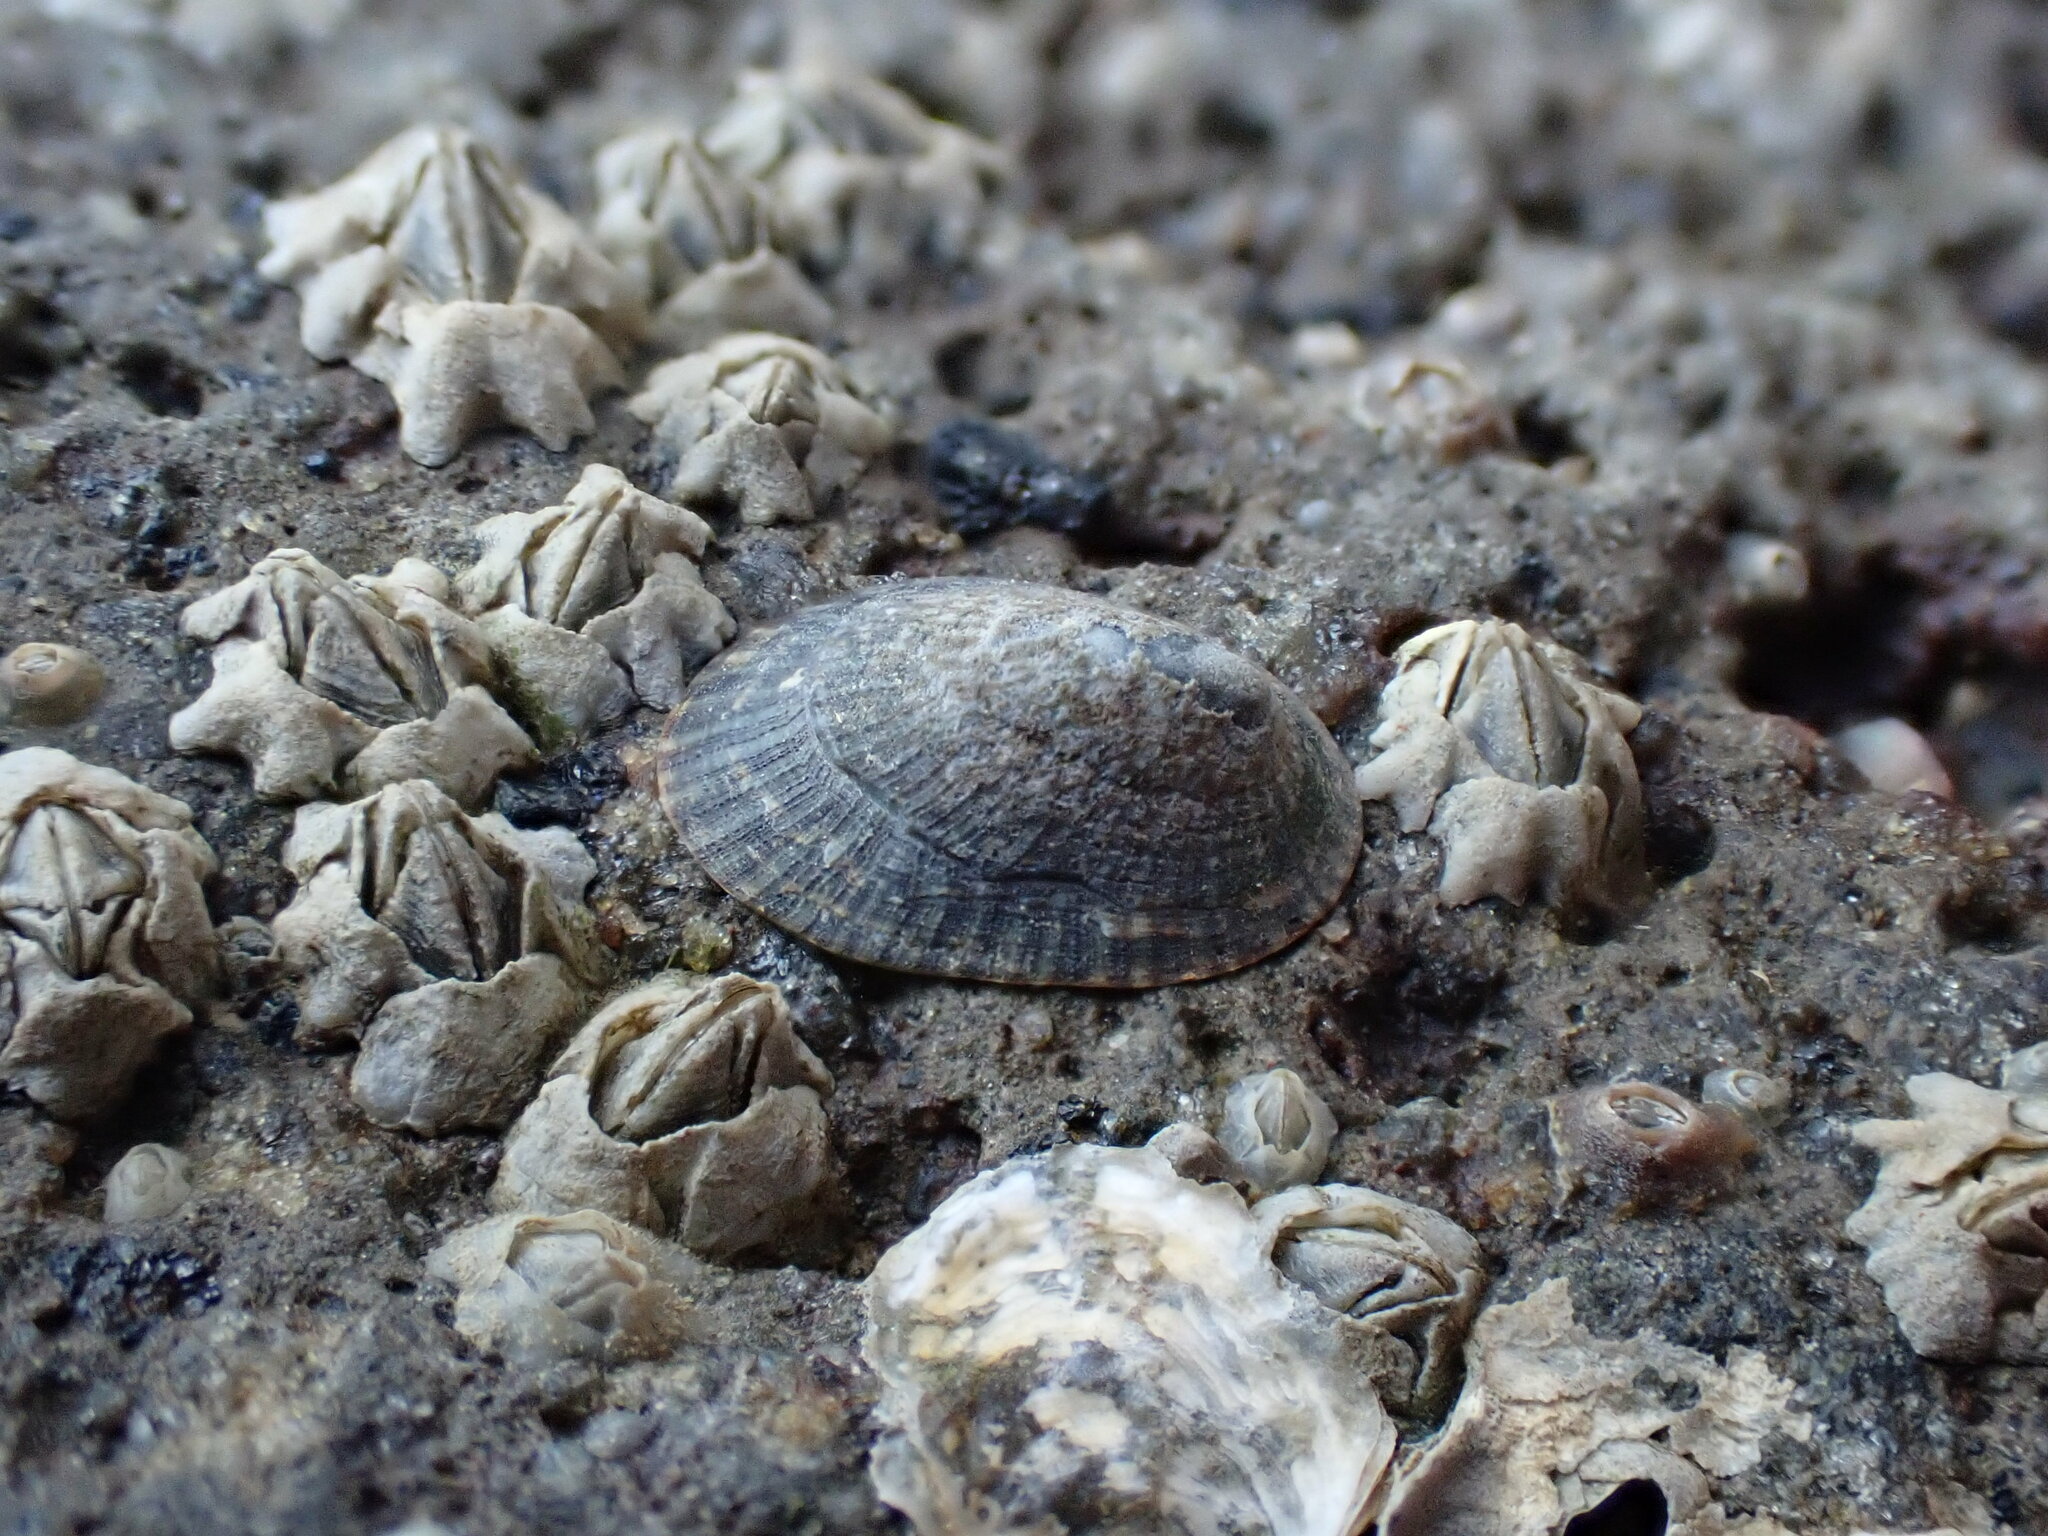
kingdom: Animalia
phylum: Mollusca
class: Gastropoda
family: Lottiidae
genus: Notoacmea
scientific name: Notoacmea
